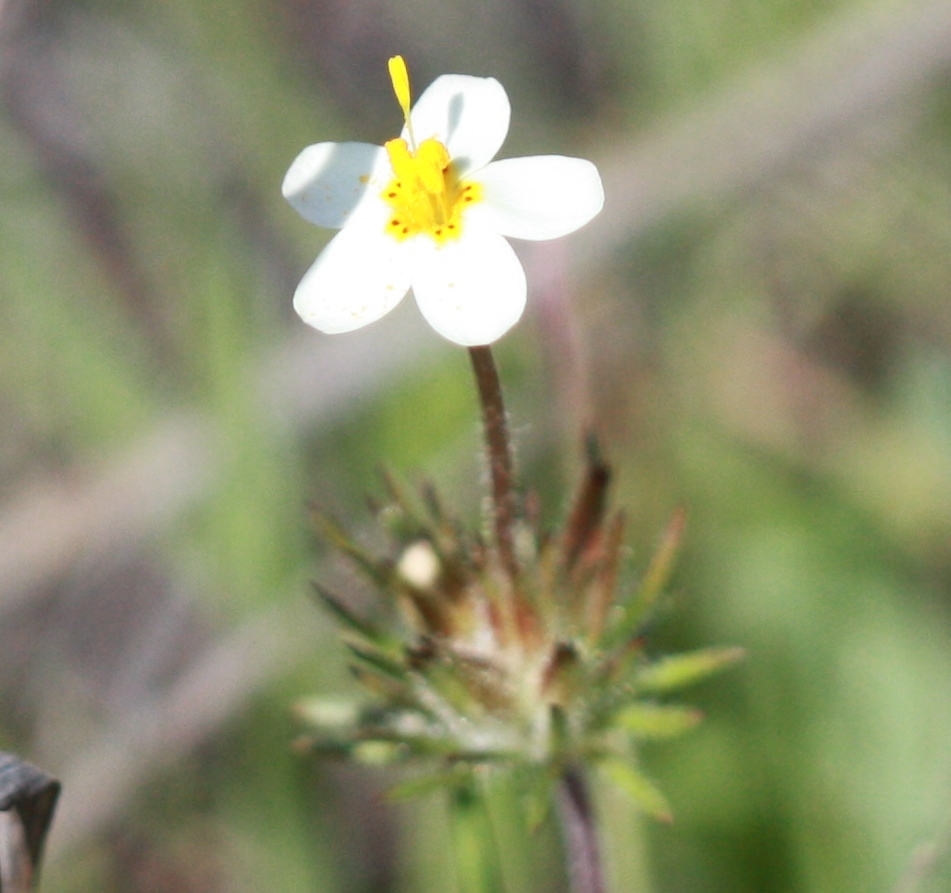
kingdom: Plantae
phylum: Tracheophyta
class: Magnoliopsida
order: Ericales
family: Polemoniaceae
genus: Leptosiphon
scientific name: Leptosiphon parviflorus
